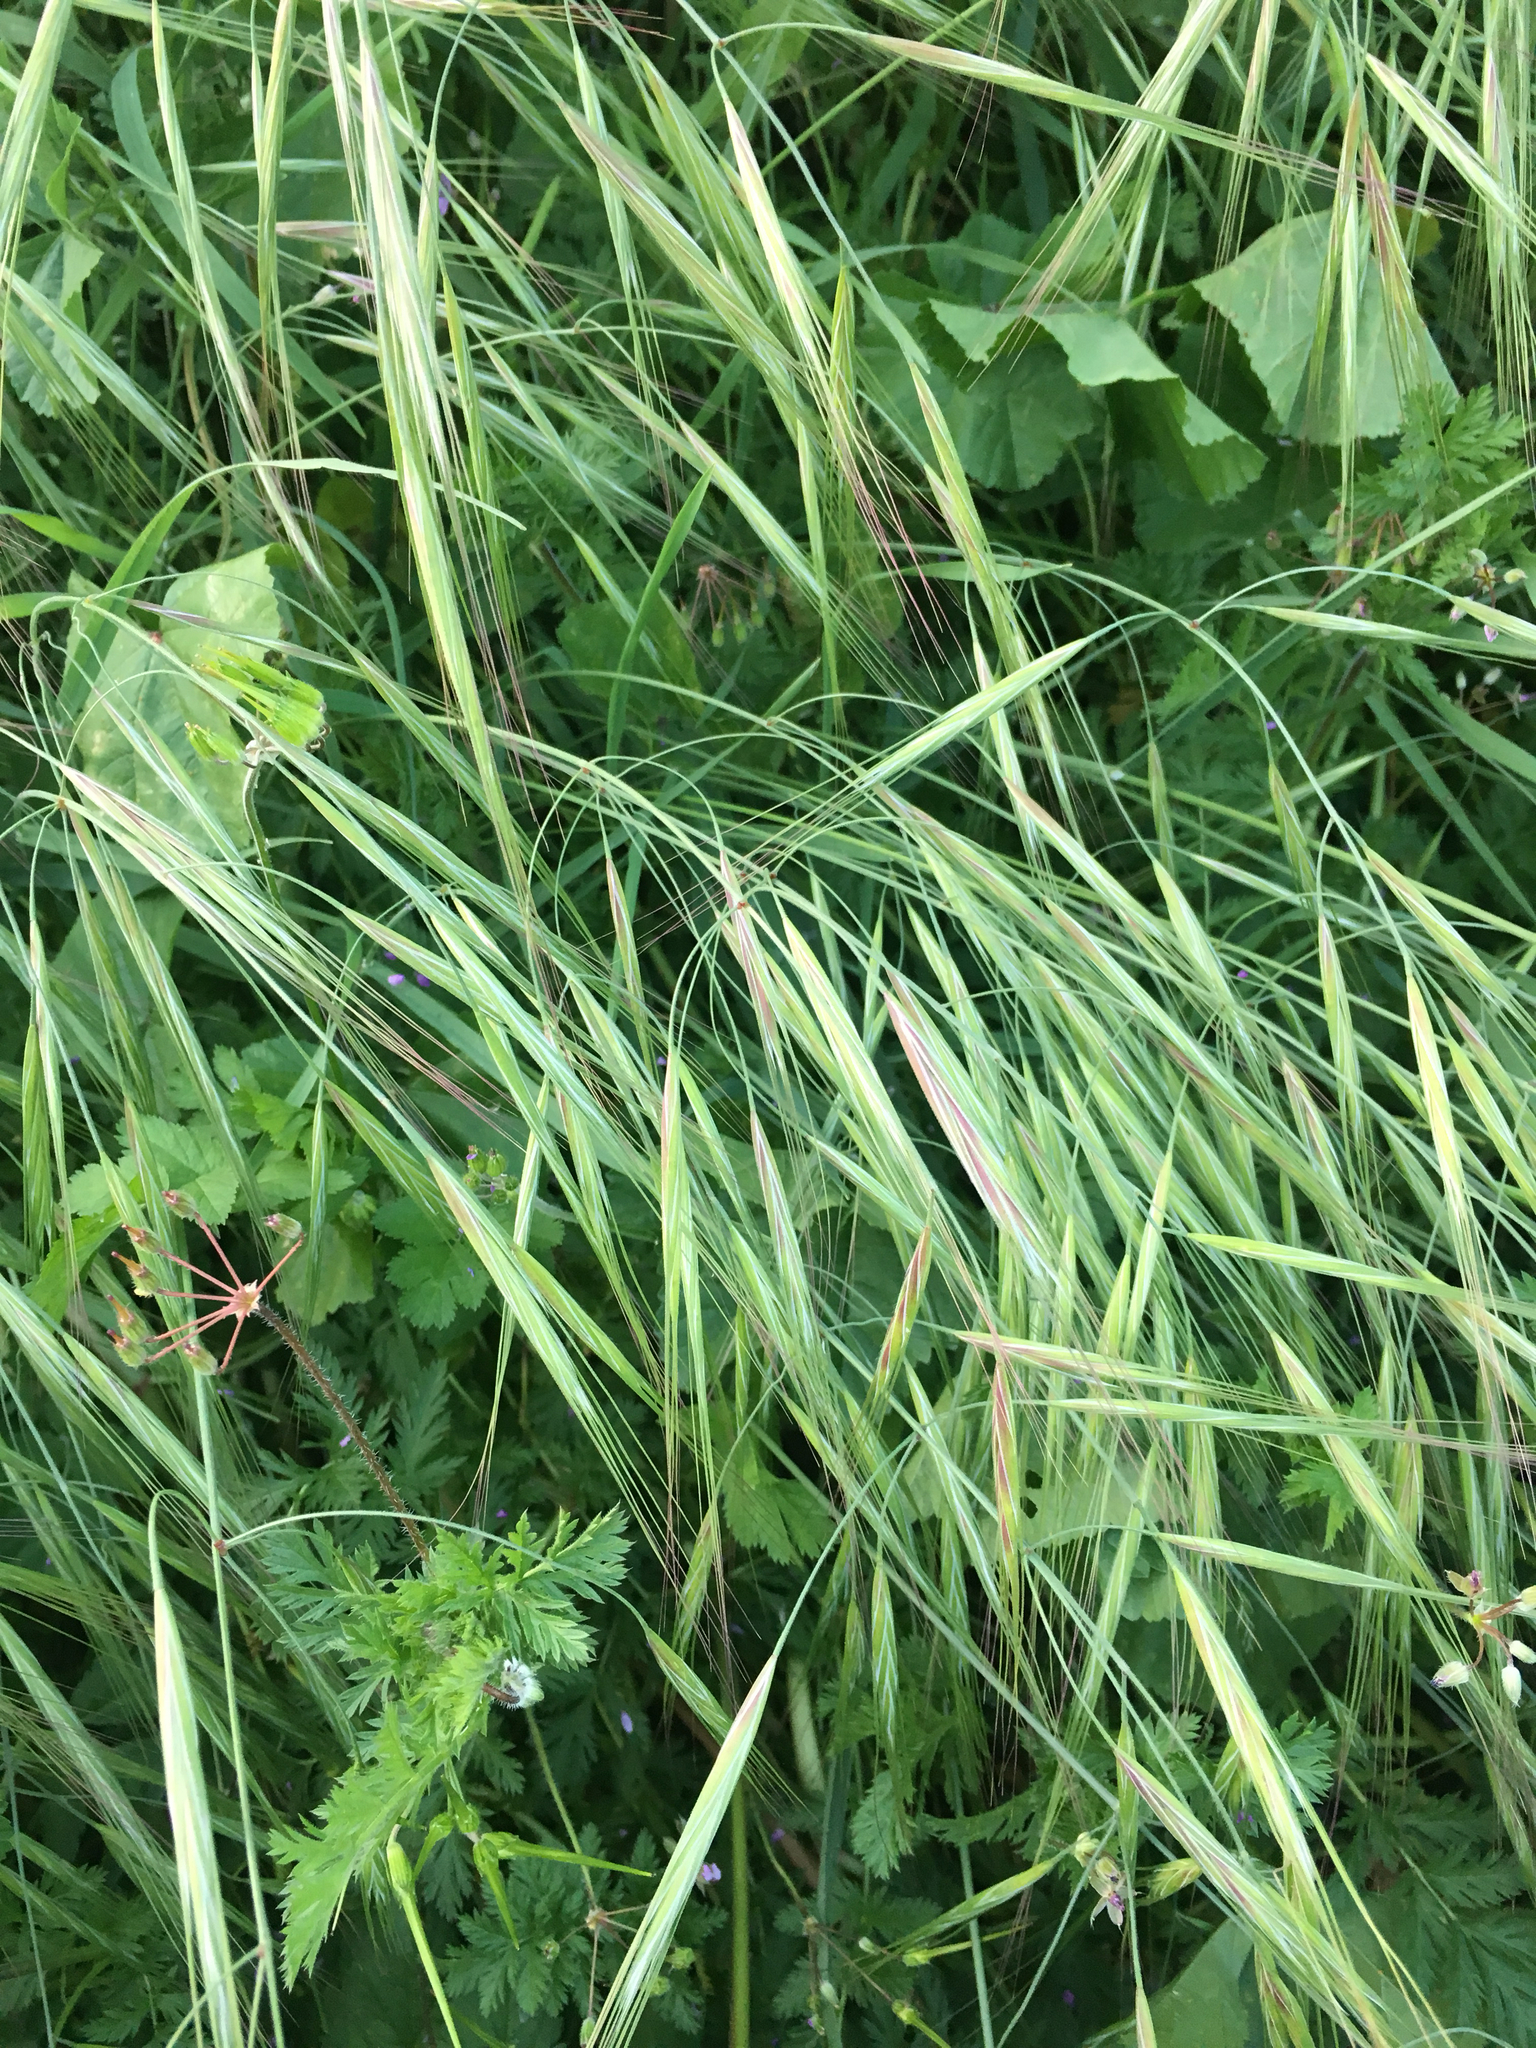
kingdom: Plantae
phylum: Tracheophyta
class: Liliopsida
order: Poales
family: Poaceae
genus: Bromus
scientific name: Bromus diandrus
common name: Ripgut brome
